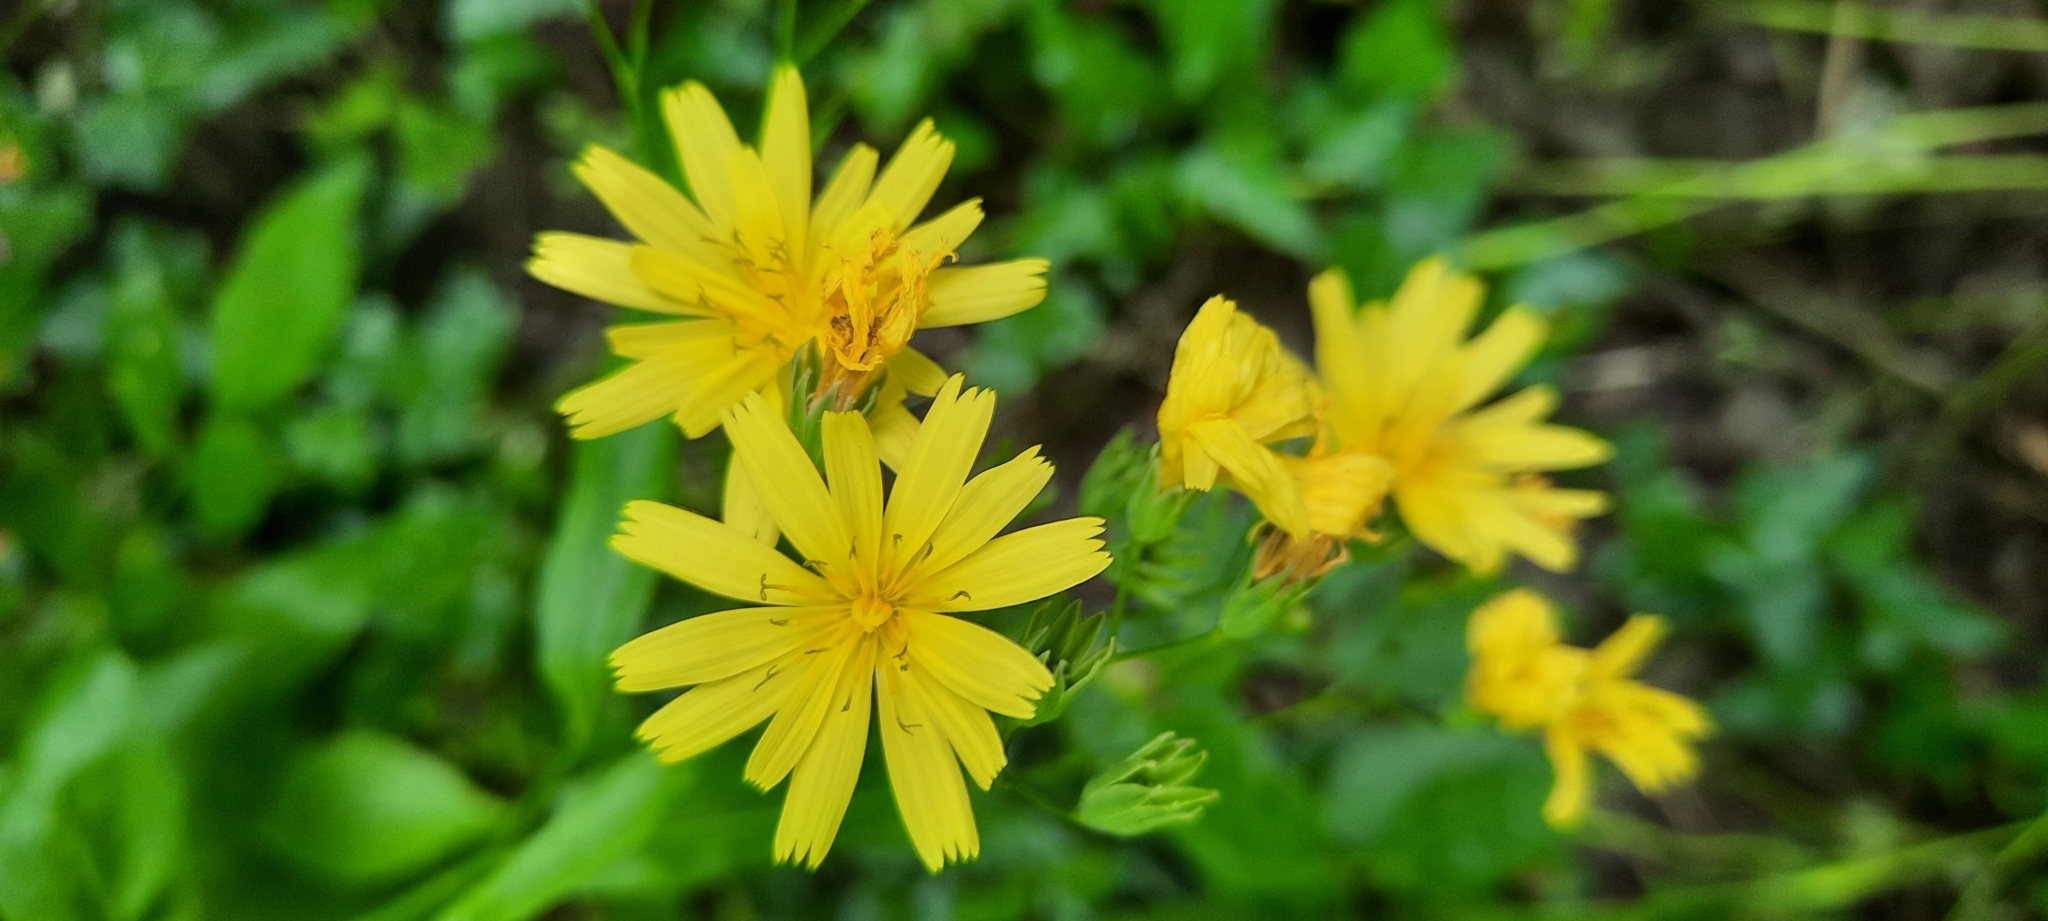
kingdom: Plantae
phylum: Tracheophyta
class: Magnoliopsida
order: Asterales
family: Asteraceae
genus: Lapsana
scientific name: Lapsana communis
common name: Nipplewort
